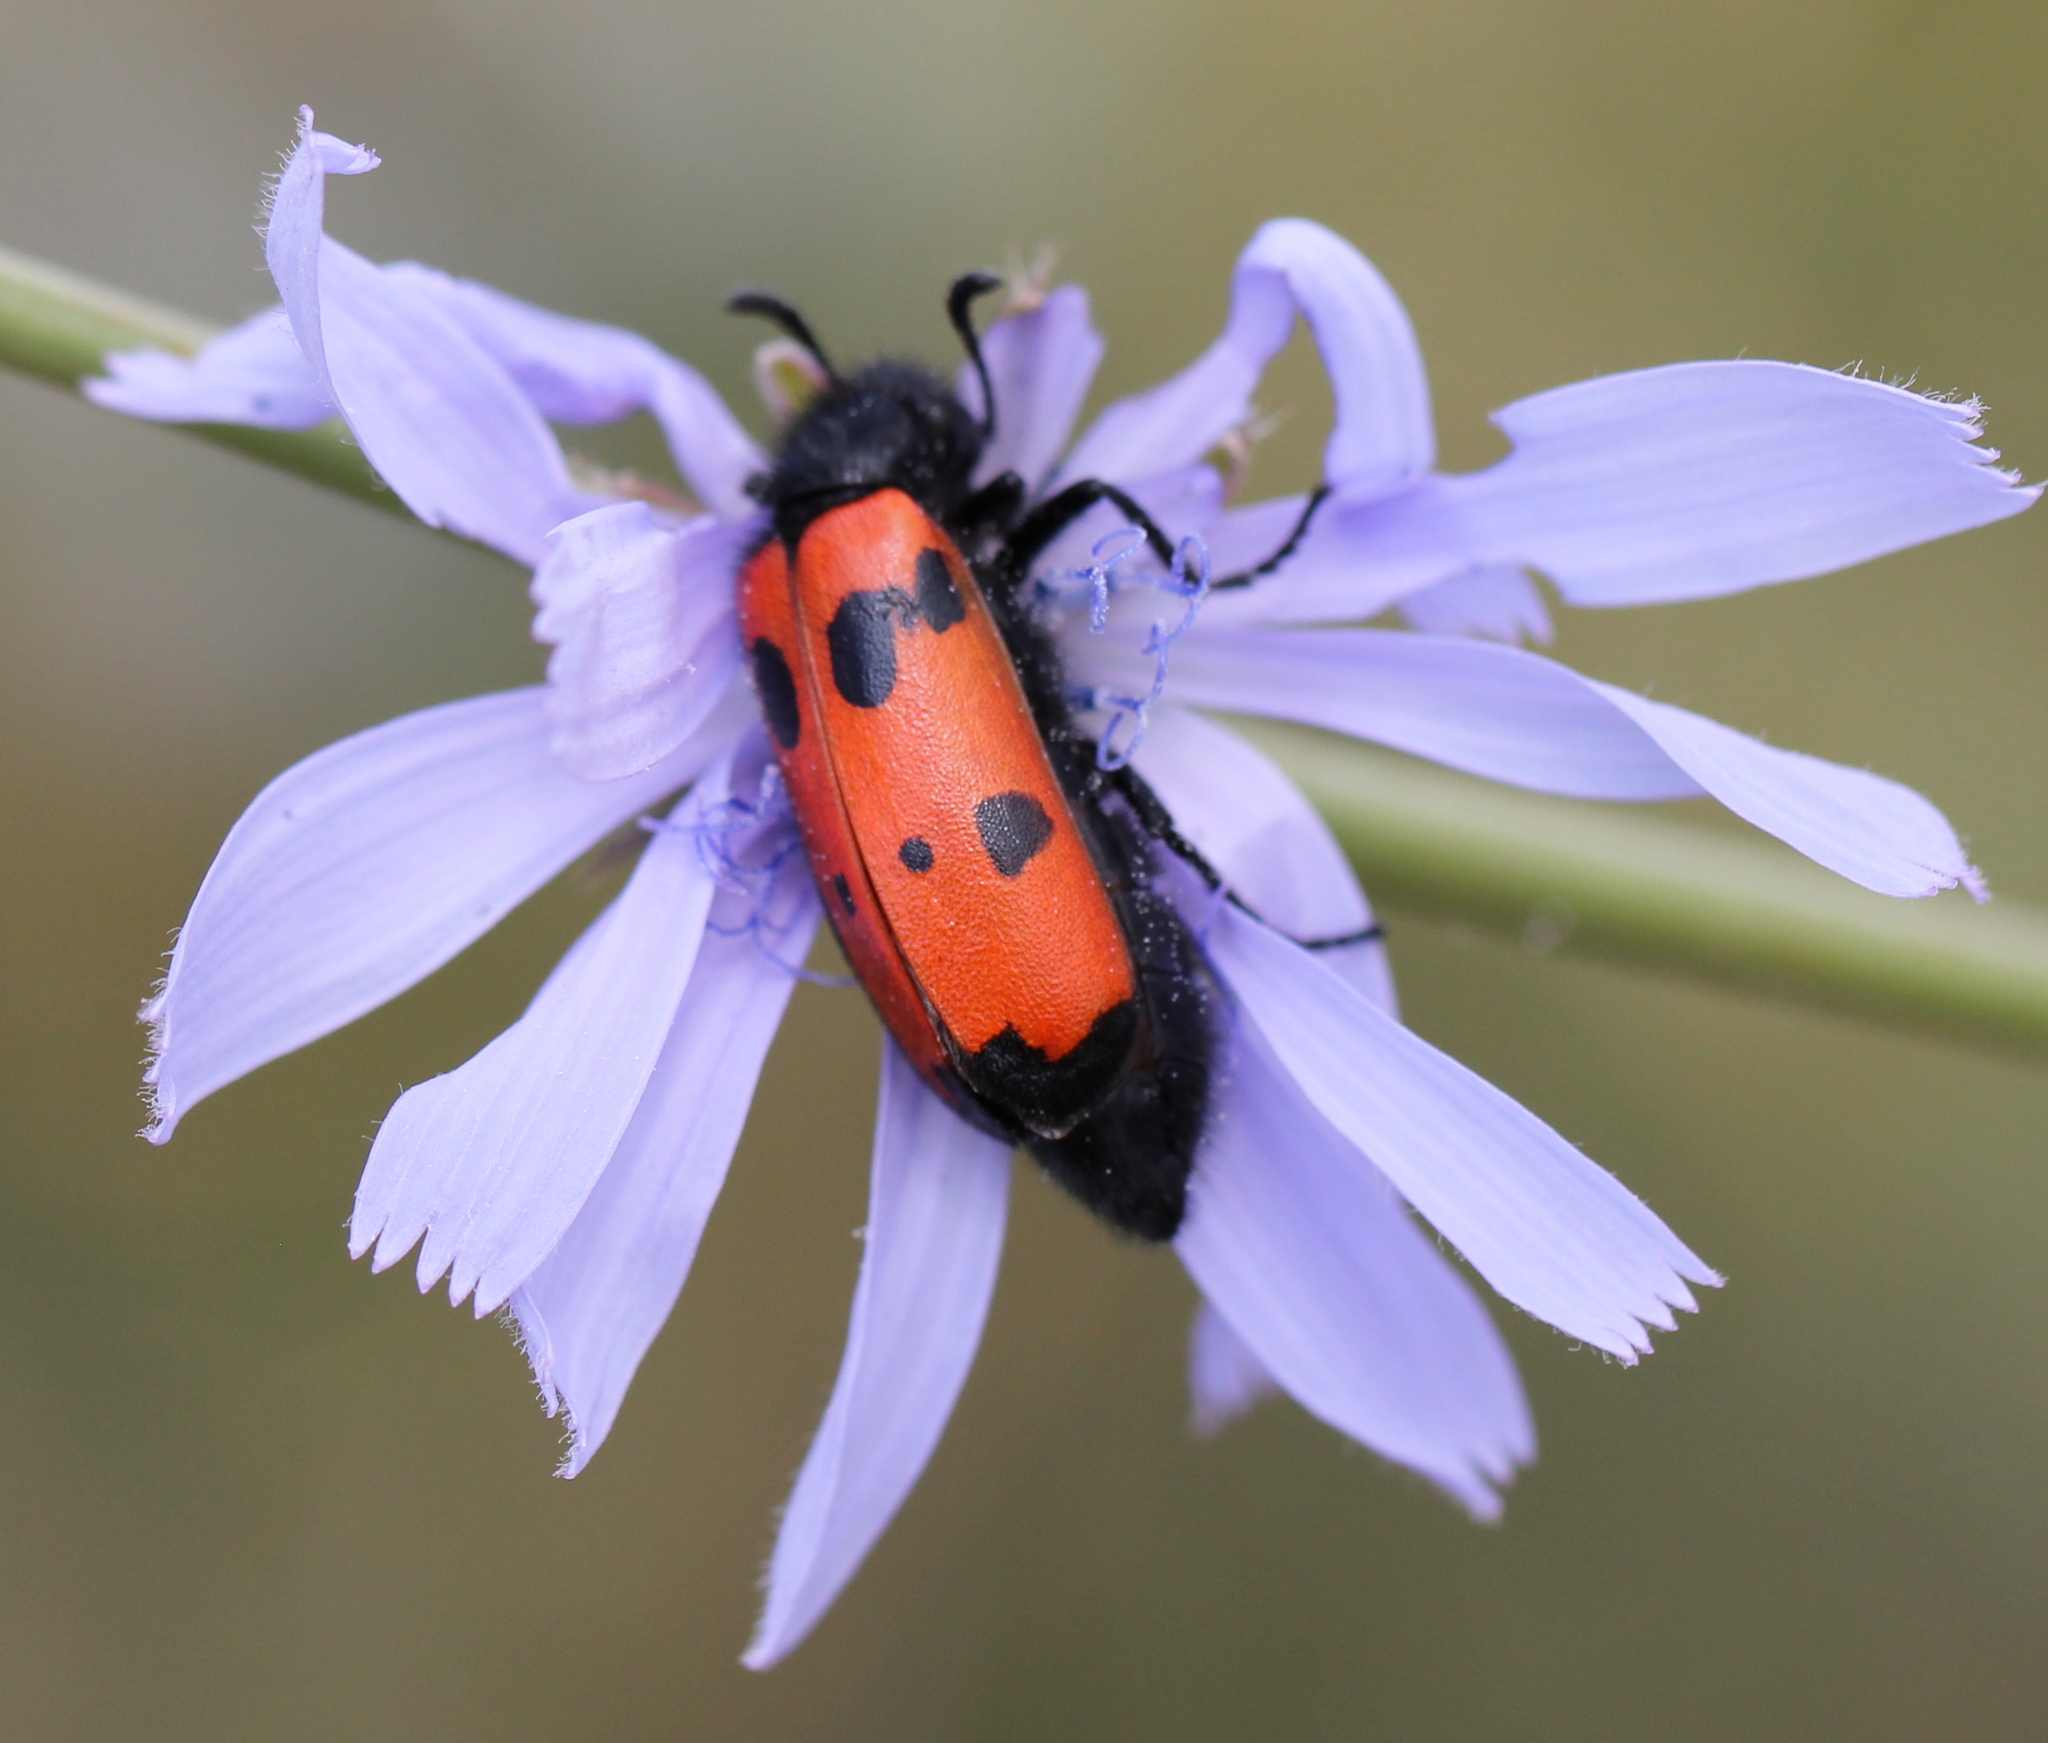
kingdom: Animalia
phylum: Arthropoda
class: Insecta
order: Coleoptera
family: Meloidae
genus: Mylabris
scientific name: Mylabris quadripunctata
